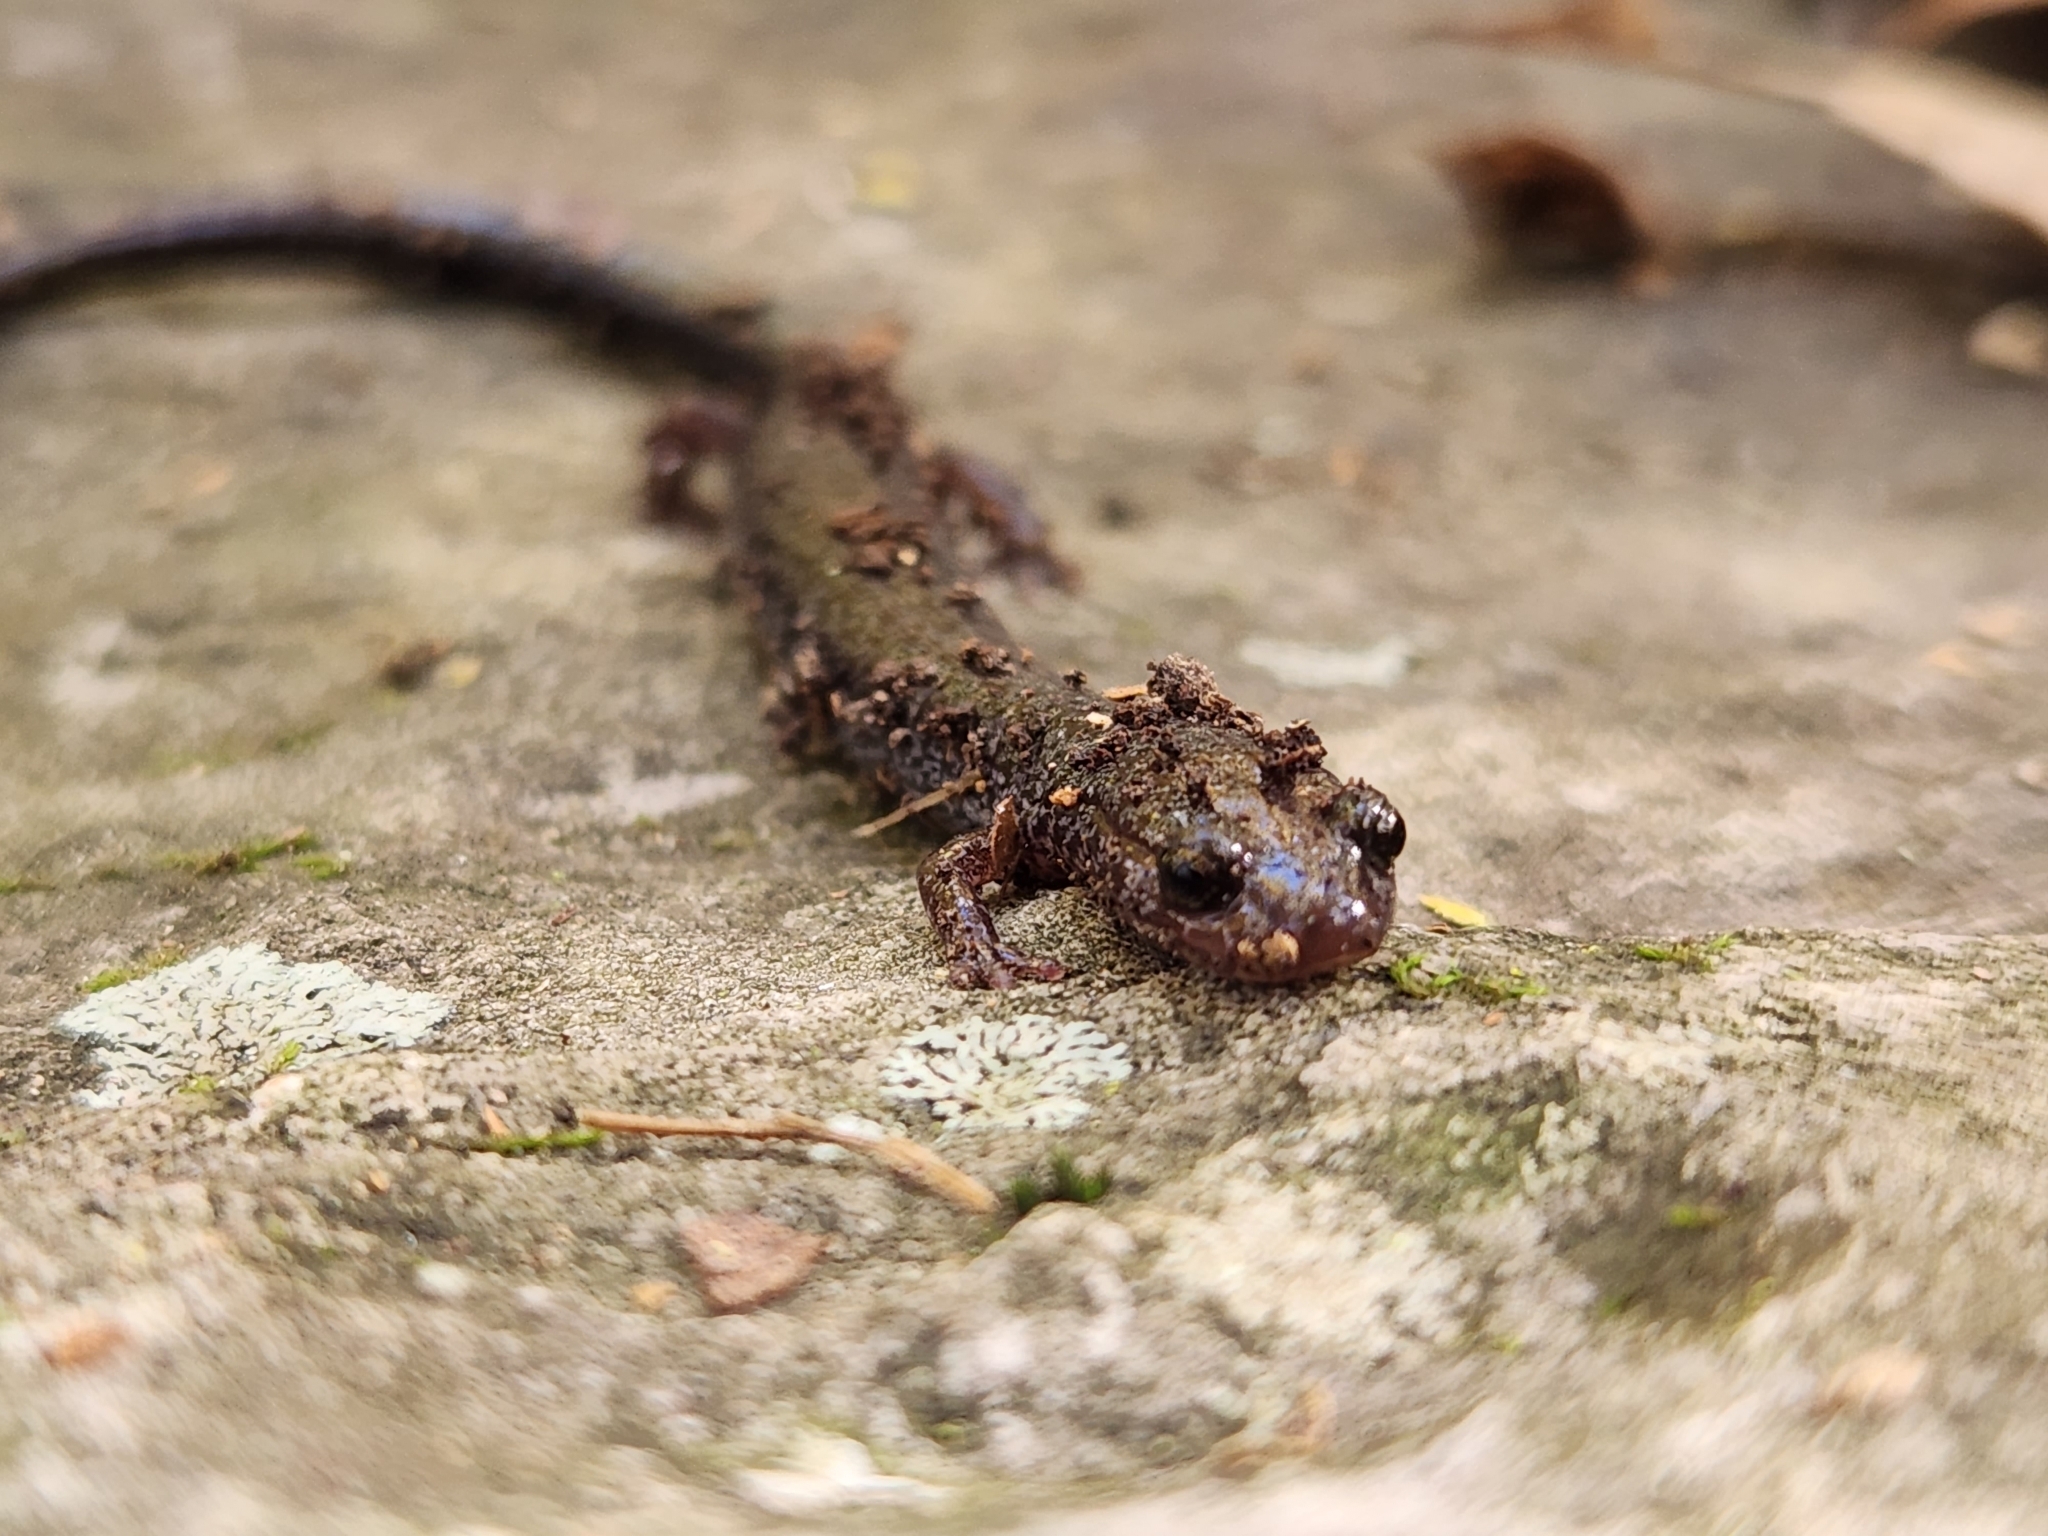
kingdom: Animalia
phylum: Chordata
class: Amphibia
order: Caudata
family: Plethodontidae
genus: Plethodon
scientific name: Plethodon cinereus
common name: Redback salamander
